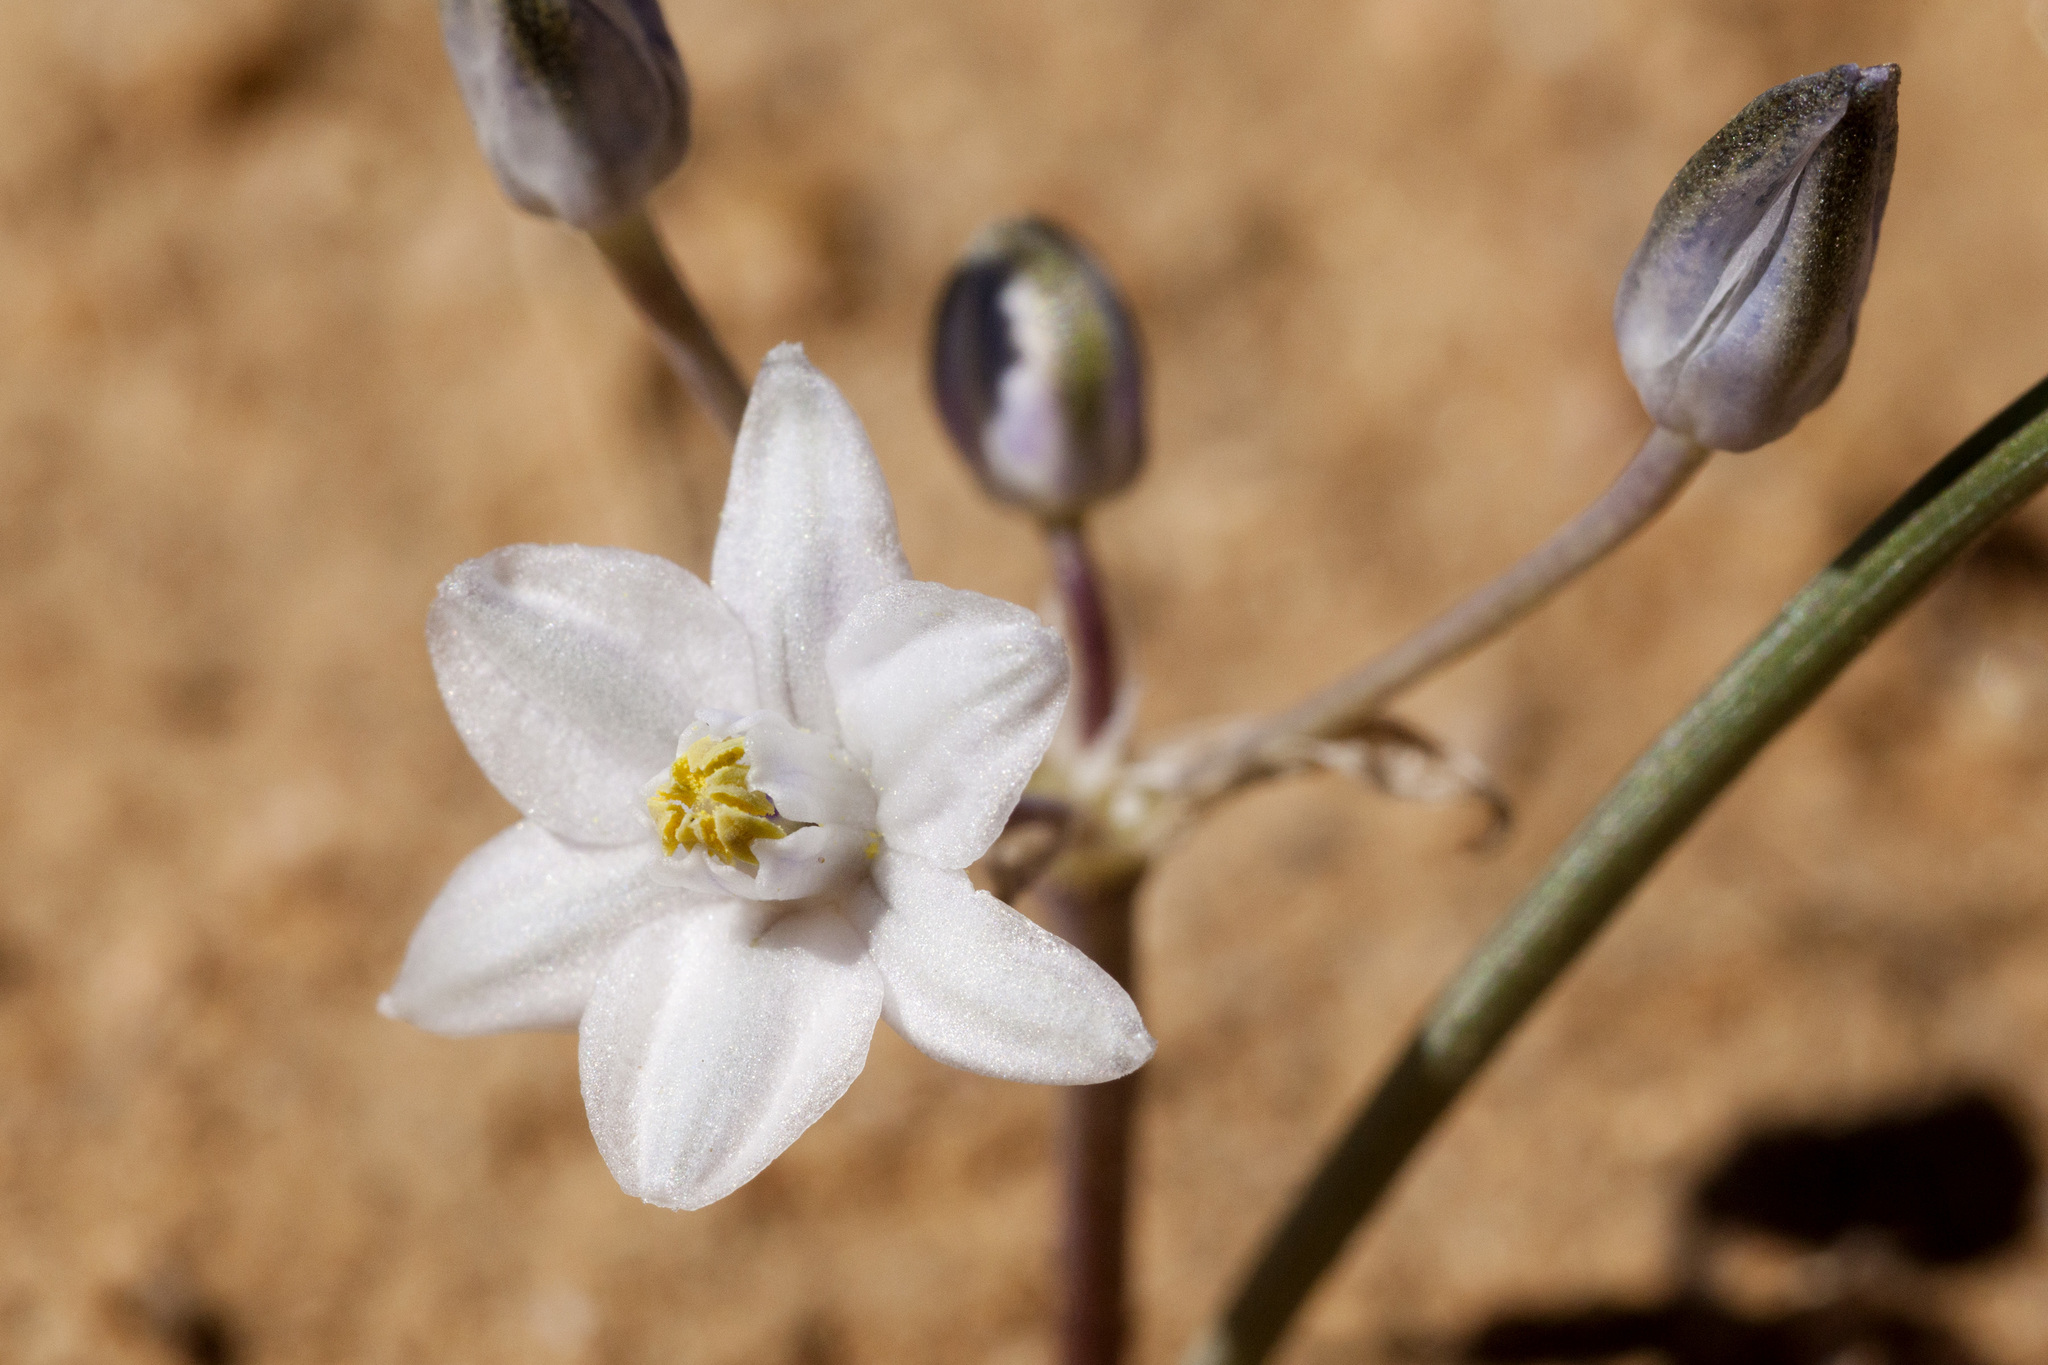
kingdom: Plantae
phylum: Tracheophyta
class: Liliopsida
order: Asparagales
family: Asparagaceae
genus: Muilla
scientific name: Muilla lordsburgana
